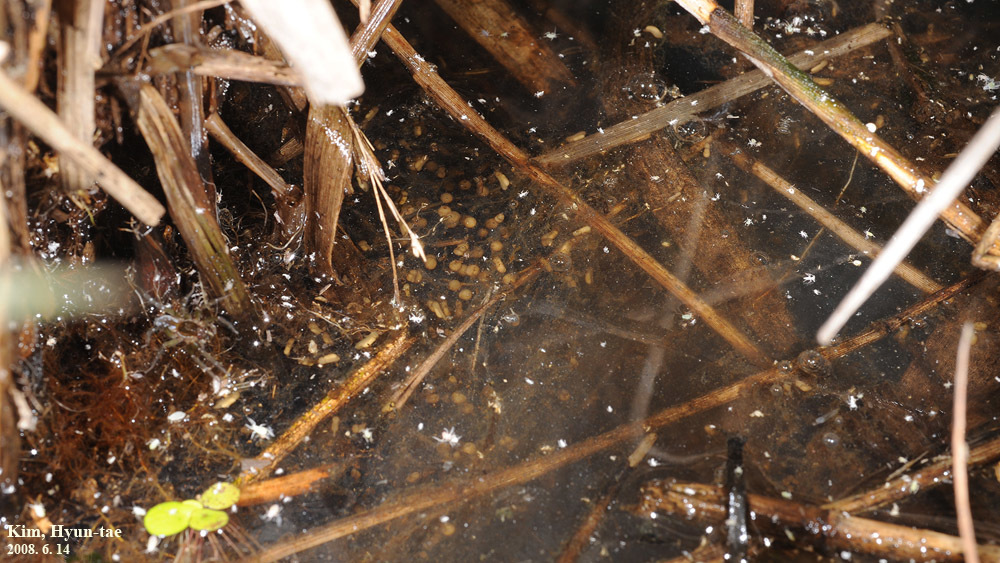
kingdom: Animalia
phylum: Chordata
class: Amphibia
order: Anura
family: Ranidae
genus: Glandirana
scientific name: Glandirana emeljanovi
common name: Northeast china rough-skinned frog
